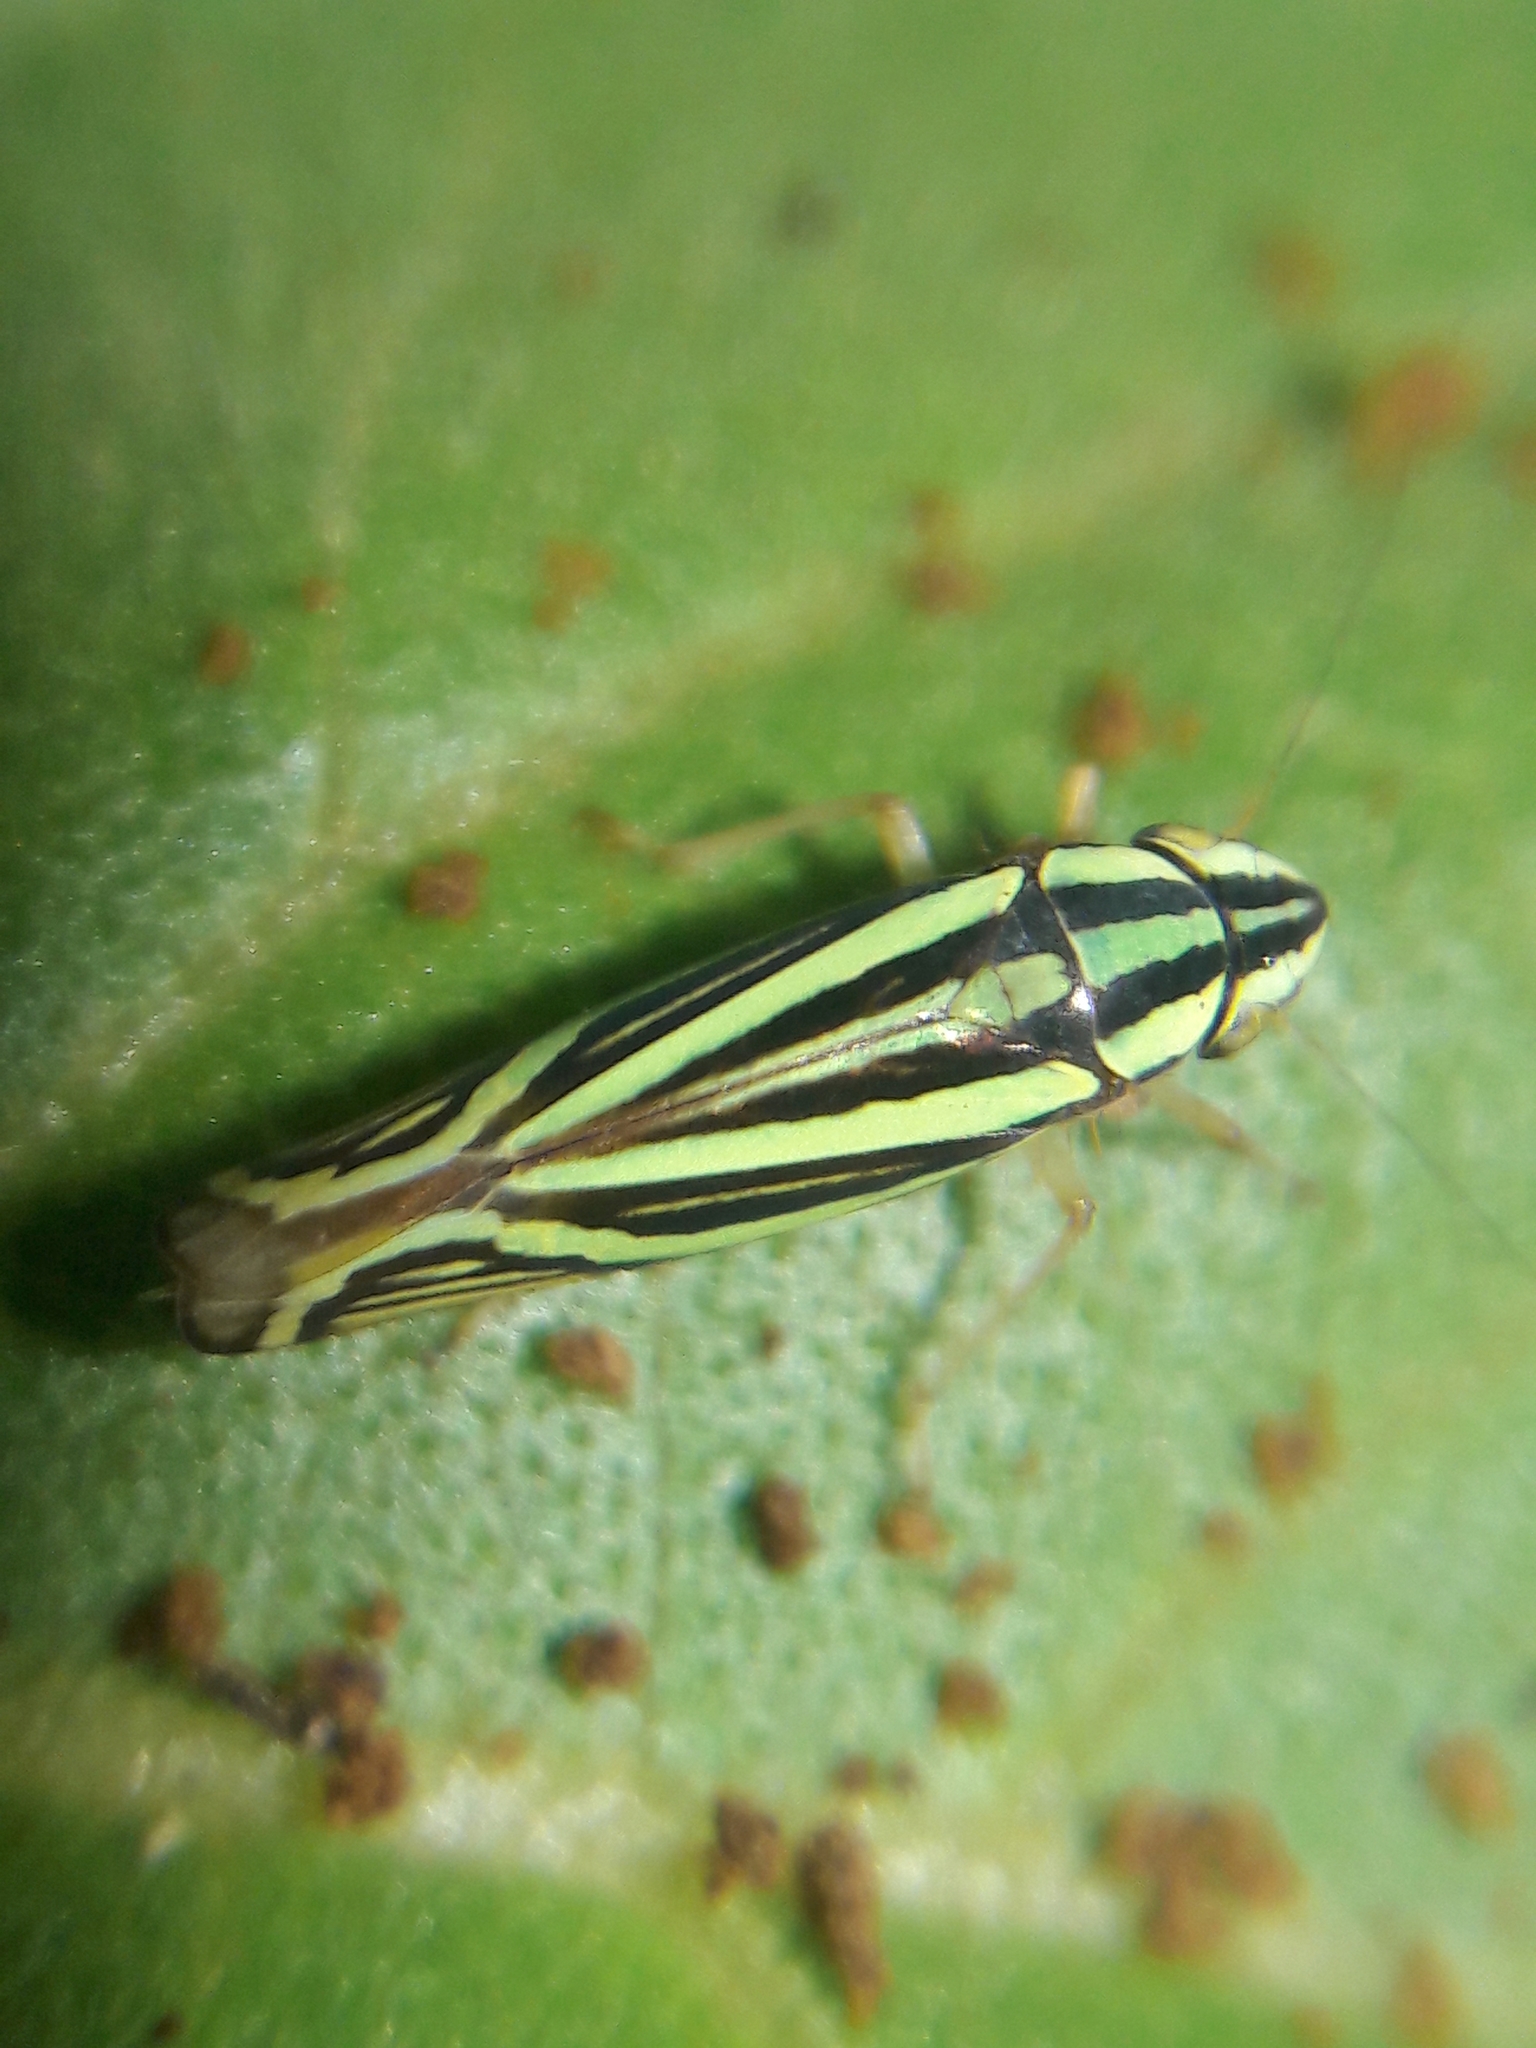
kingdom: Animalia
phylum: Arthropoda
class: Insecta
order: Hemiptera
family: Cicadellidae
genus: Sibovia
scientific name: Sibovia sagata
